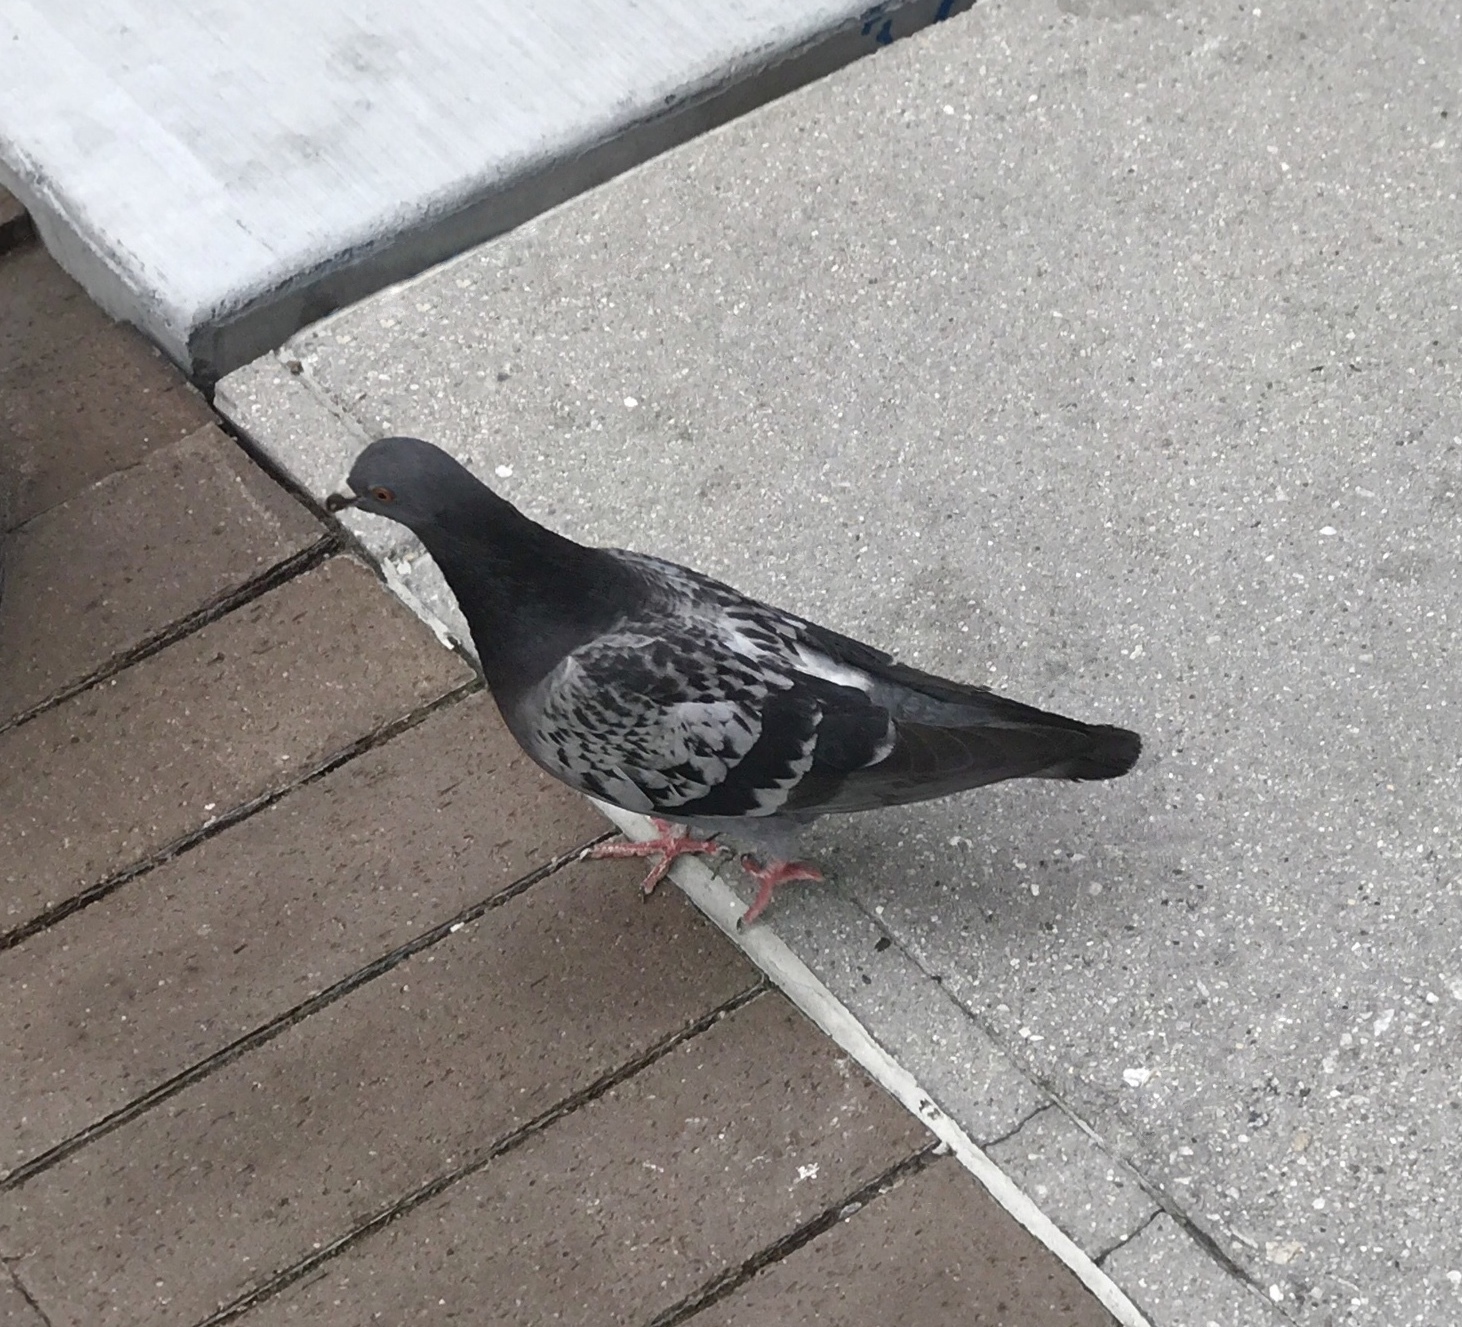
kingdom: Animalia
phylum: Chordata
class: Aves
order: Columbiformes
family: Columbidae
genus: Columba
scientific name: Columba livia
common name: Rock pigeon
